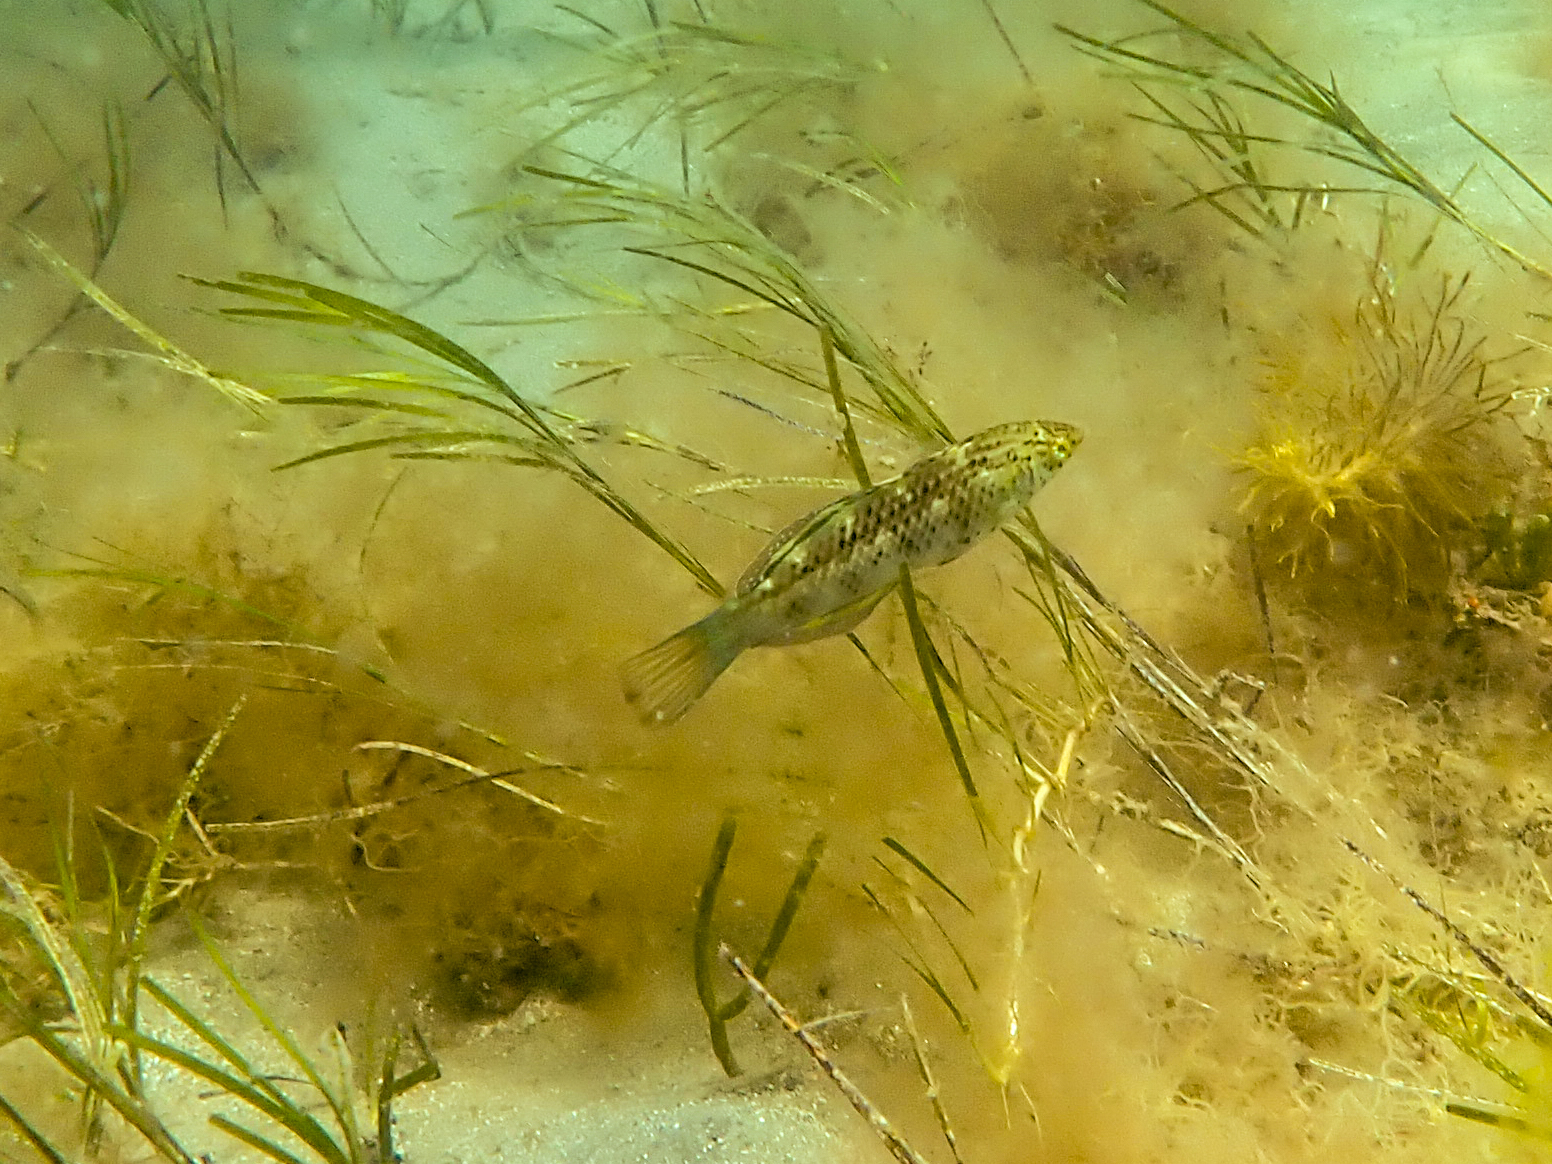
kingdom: Animalia
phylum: Chordata
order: Perciformes
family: Labridae
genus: Dotalabrus
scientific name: Dotalabrus aurantiacus
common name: Pretty polly
